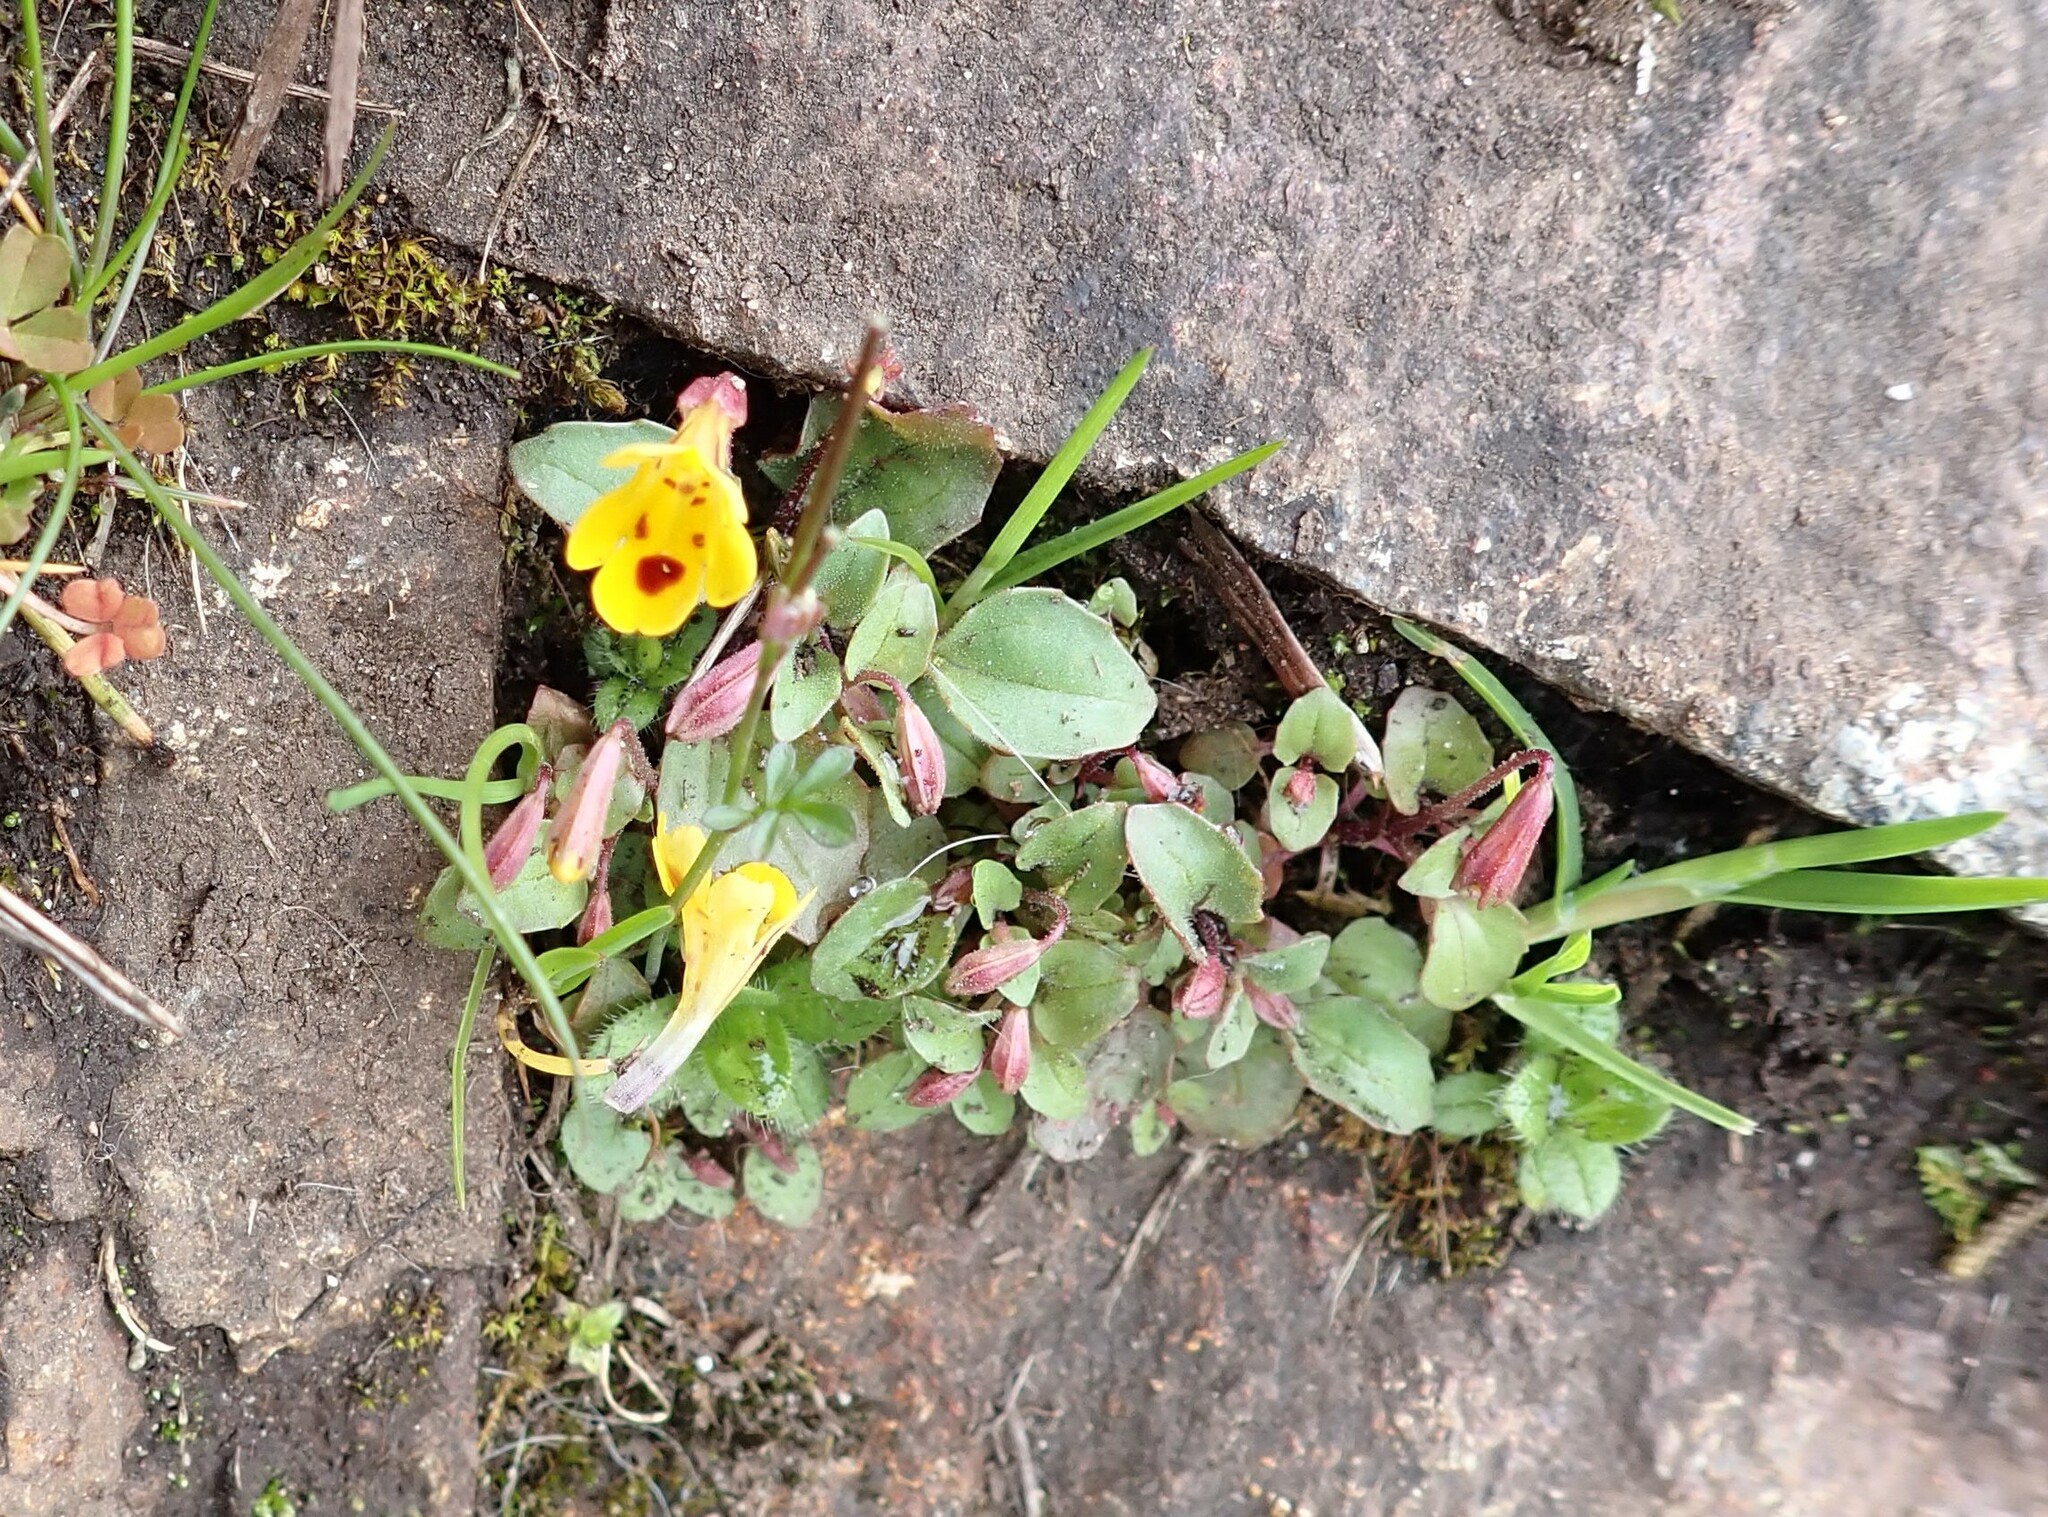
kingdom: Plantae
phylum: Tracheophyta
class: Magnoliopsida
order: Lamiales
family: Phrymaceae
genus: Erythranthe
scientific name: Erythranthe alsinoides
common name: Chickweed monkeyflower
